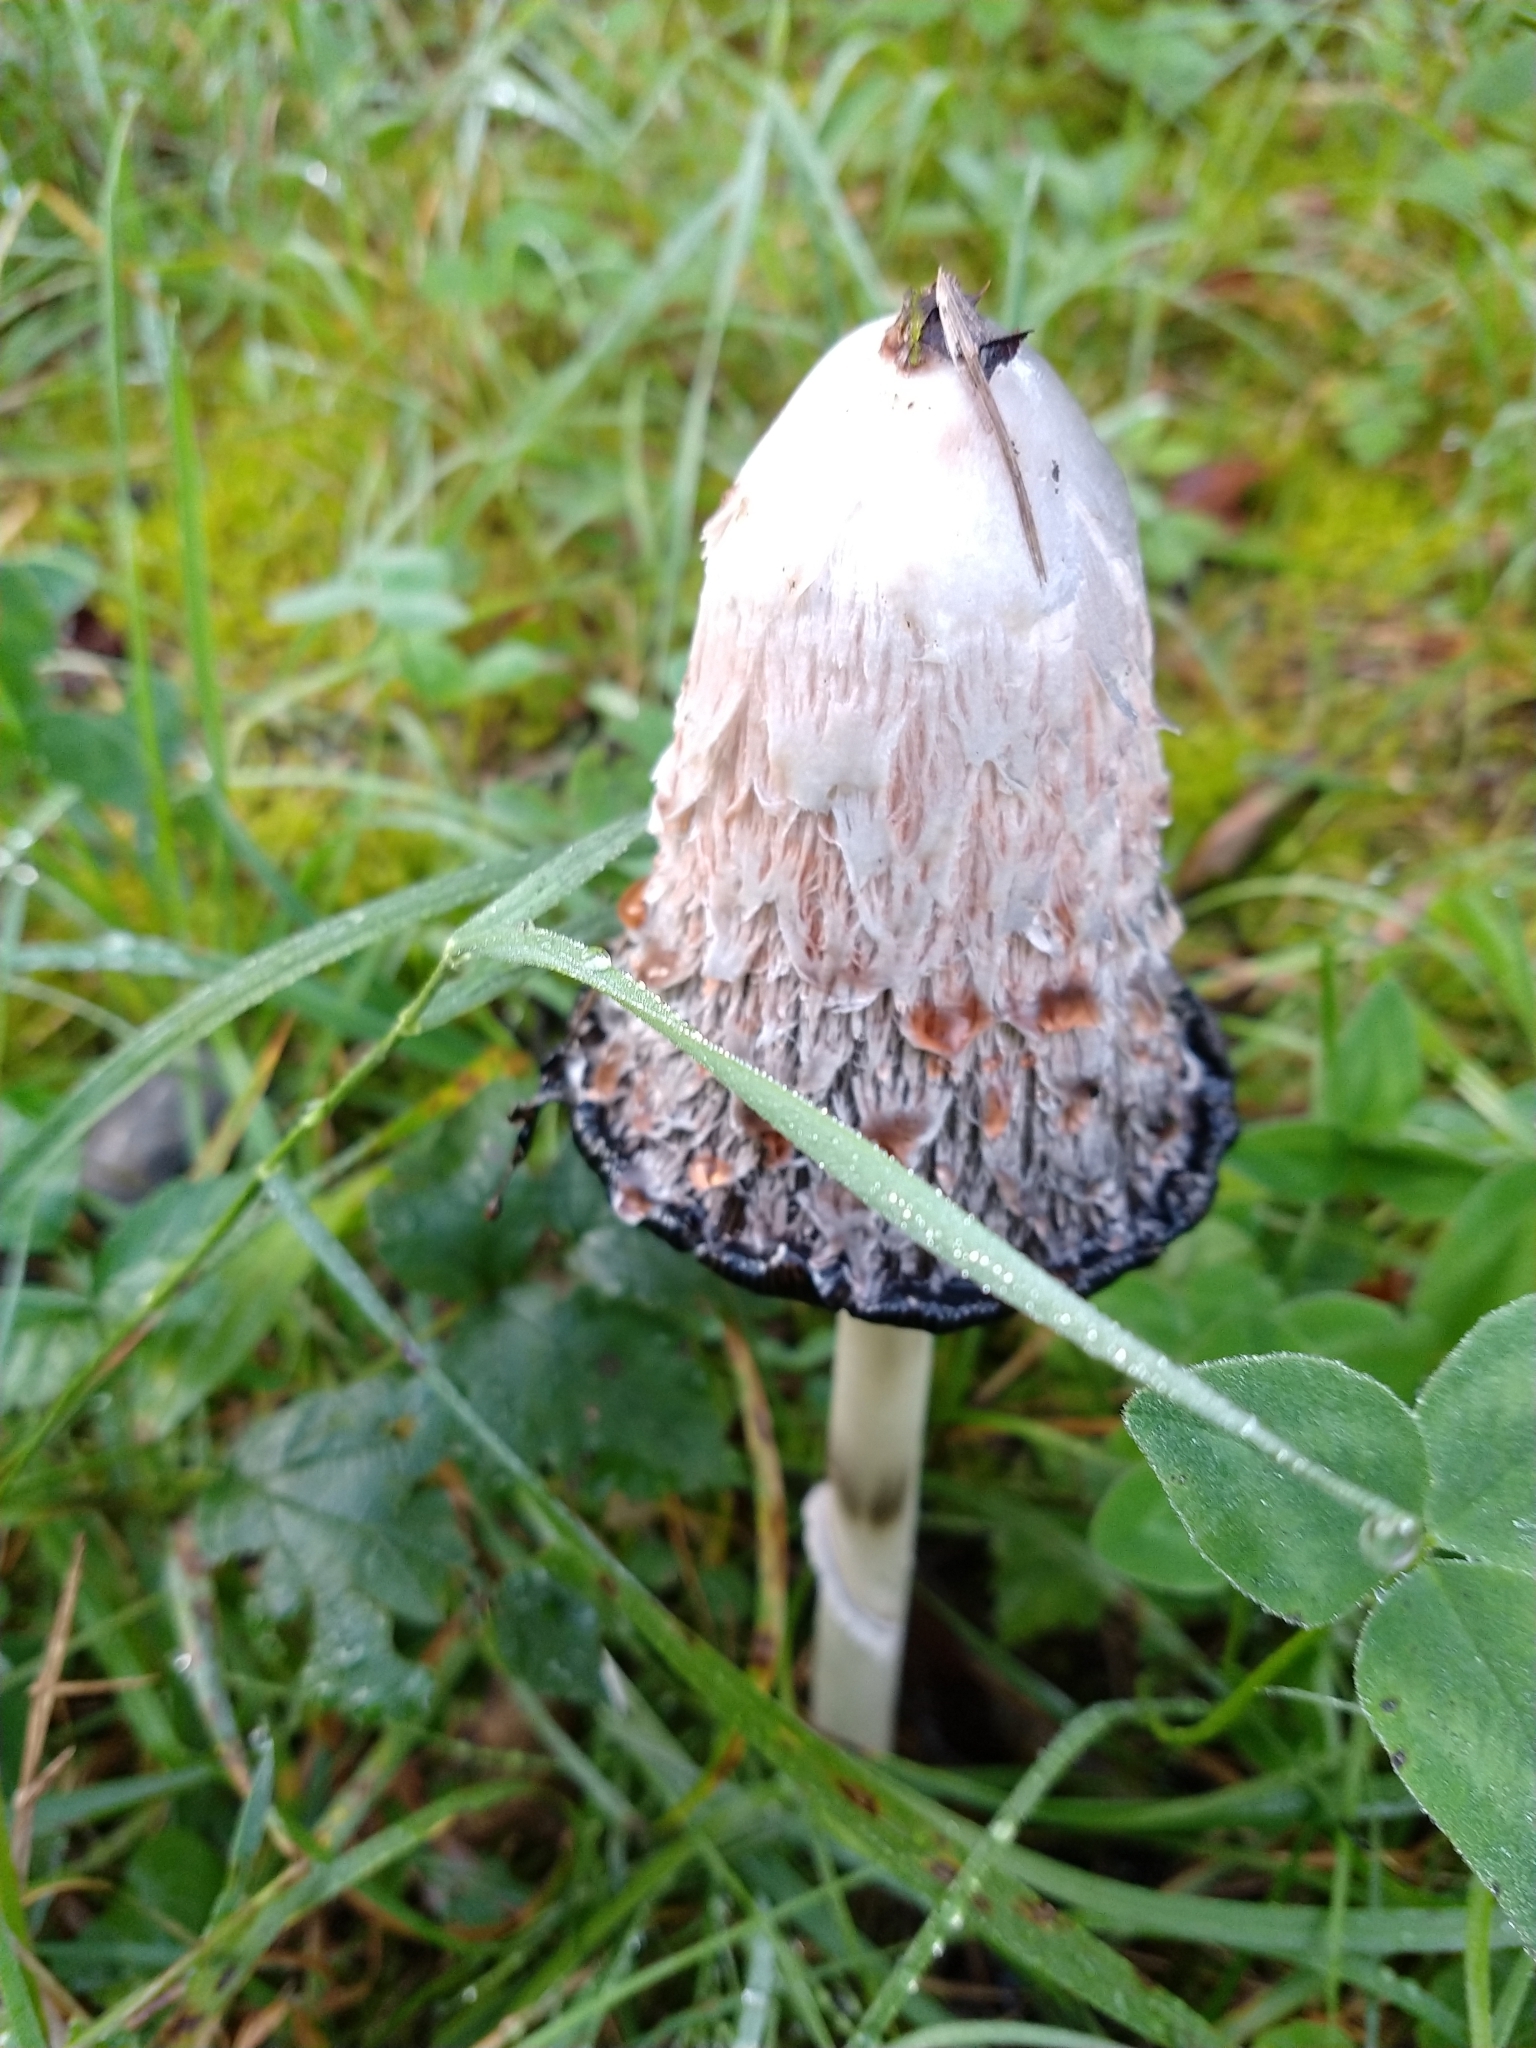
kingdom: Fungi
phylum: Basidiomycota
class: Agaricomycetes
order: Agaricales
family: Agaricaceae
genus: Coprinus
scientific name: Coprinus comatus
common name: Lawyer's wig
